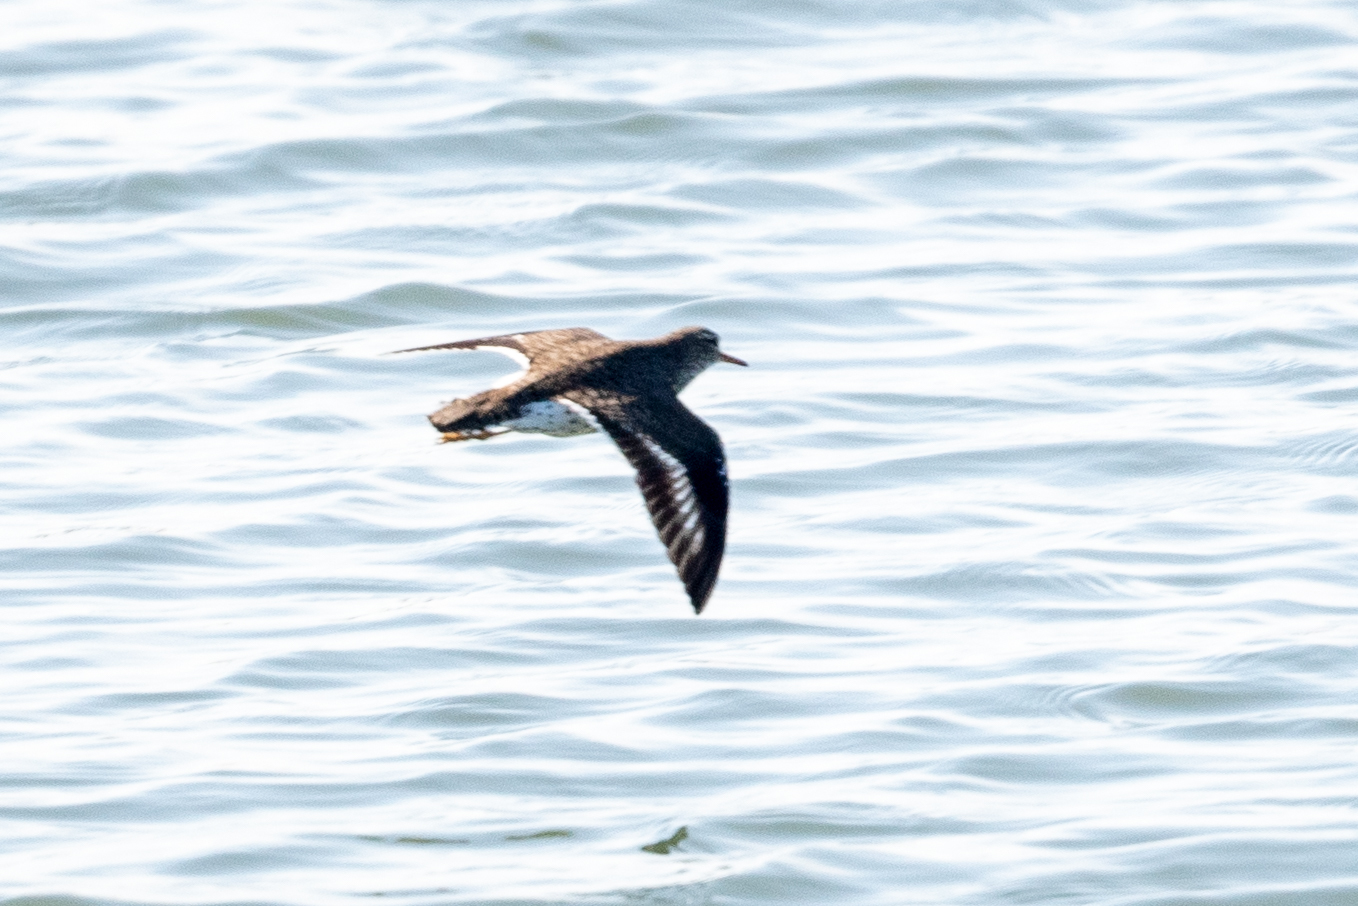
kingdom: Animalia
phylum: Chordata
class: Aves
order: Charadriiformes
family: Scolopacidae
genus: Actitis
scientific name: Actitis macularius
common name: Spotted sandpiper
